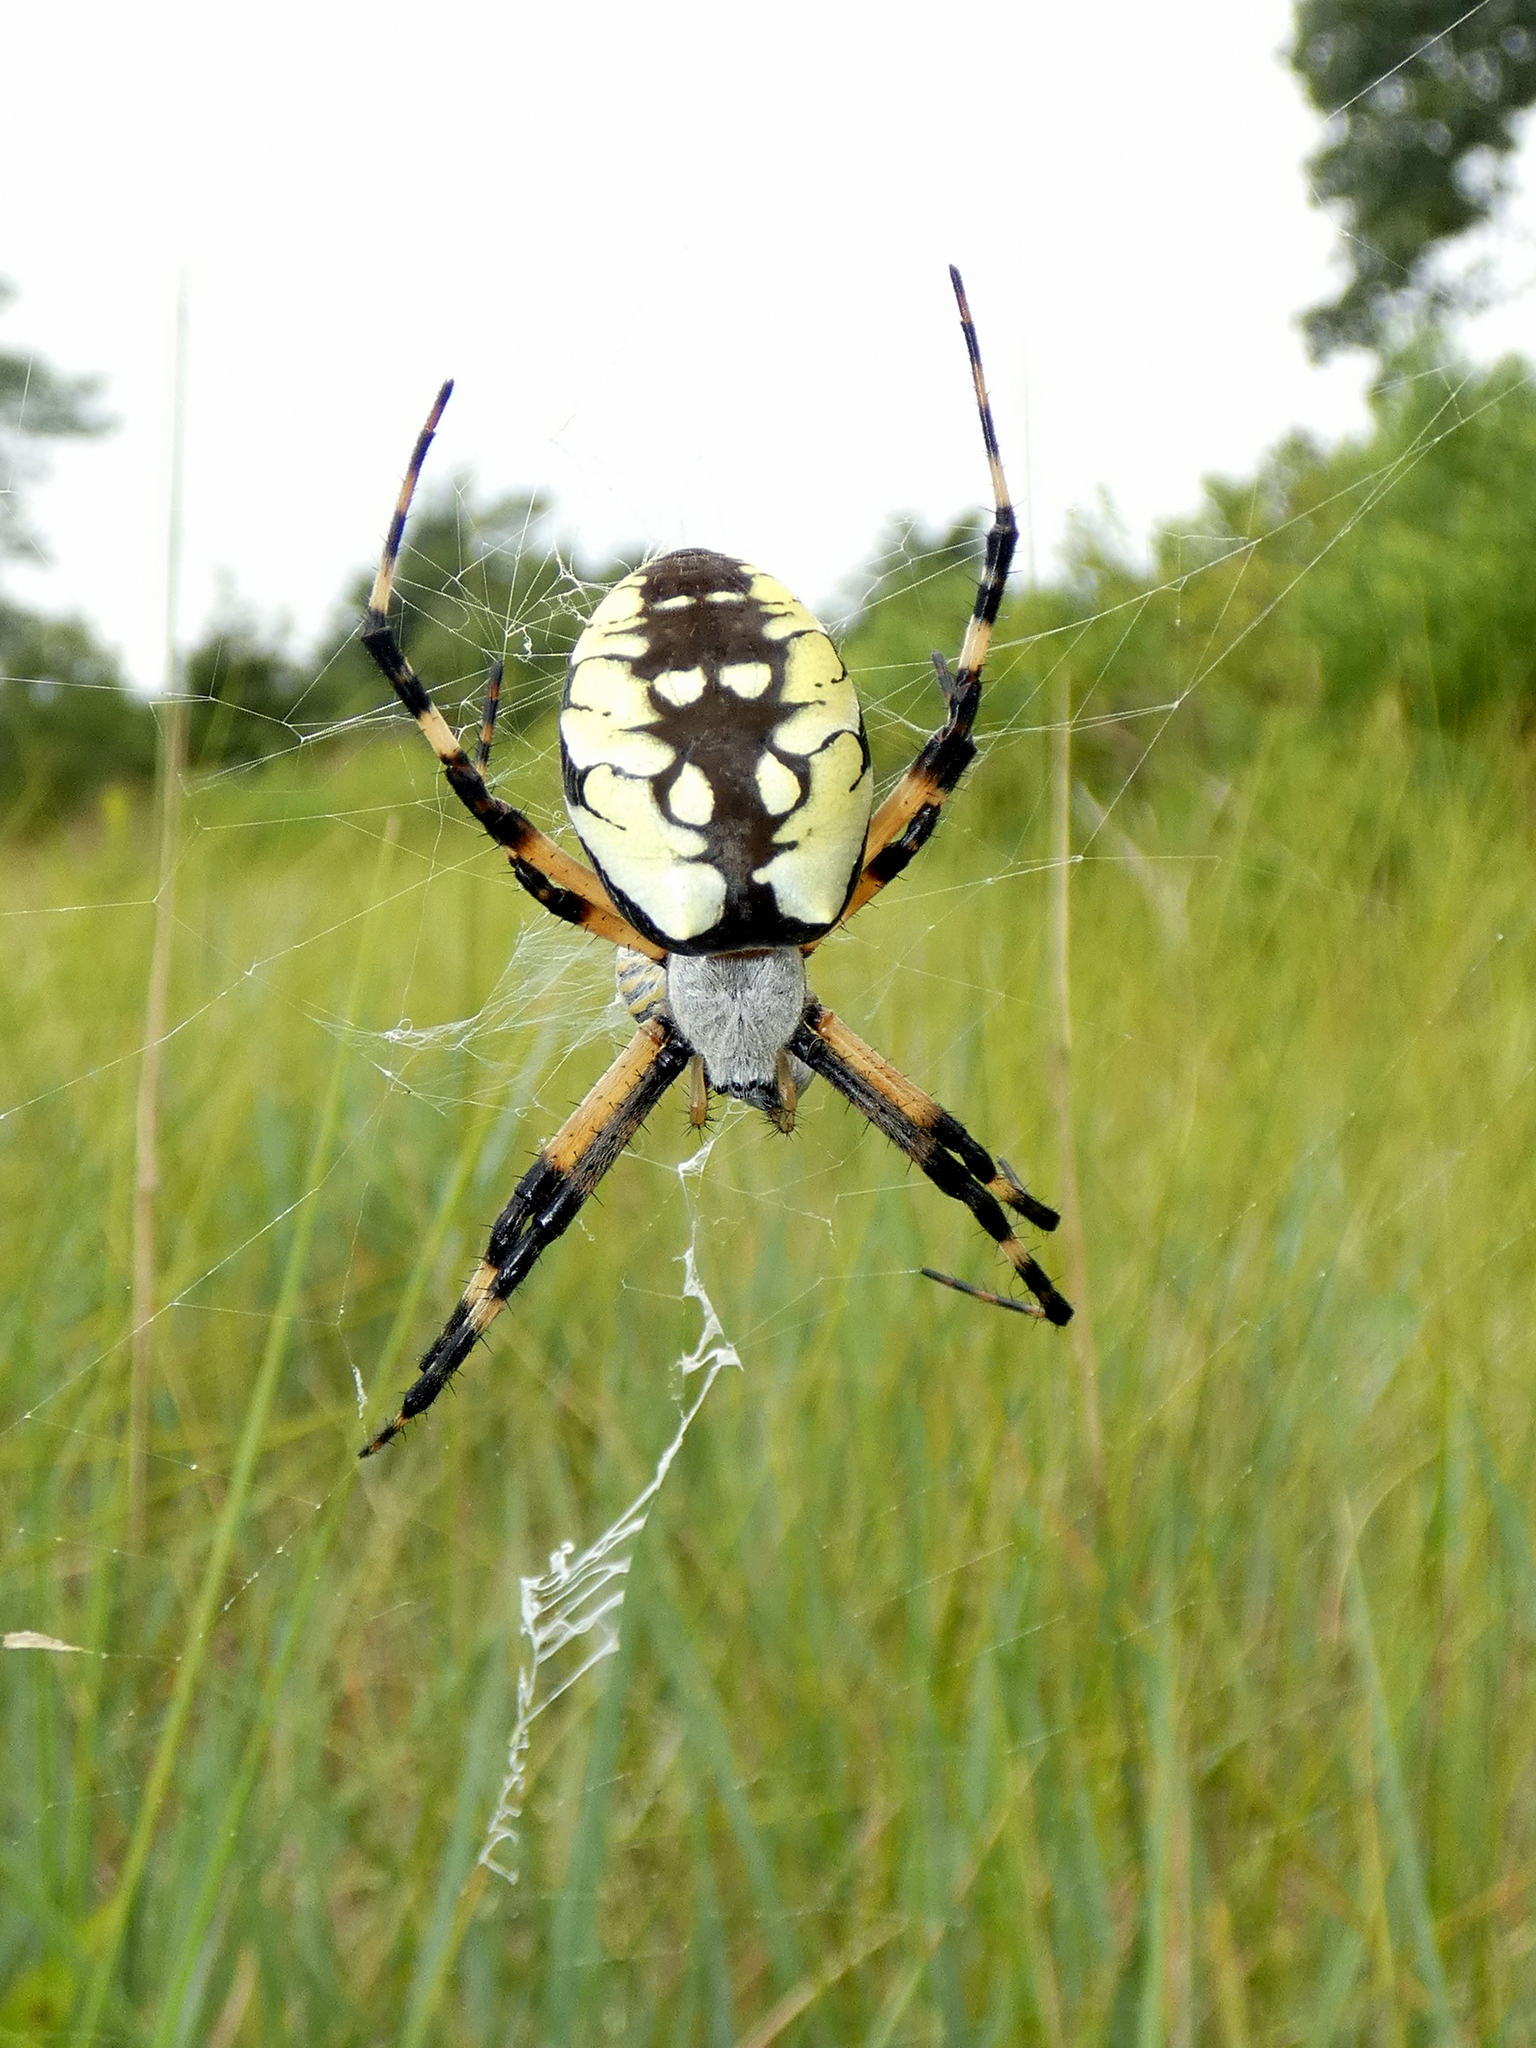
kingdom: Animalia
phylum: Arthropoda
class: Arachnida
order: Araneae
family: Araneidae
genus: Argiope
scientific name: Argiope aurantia
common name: Orb weavers
